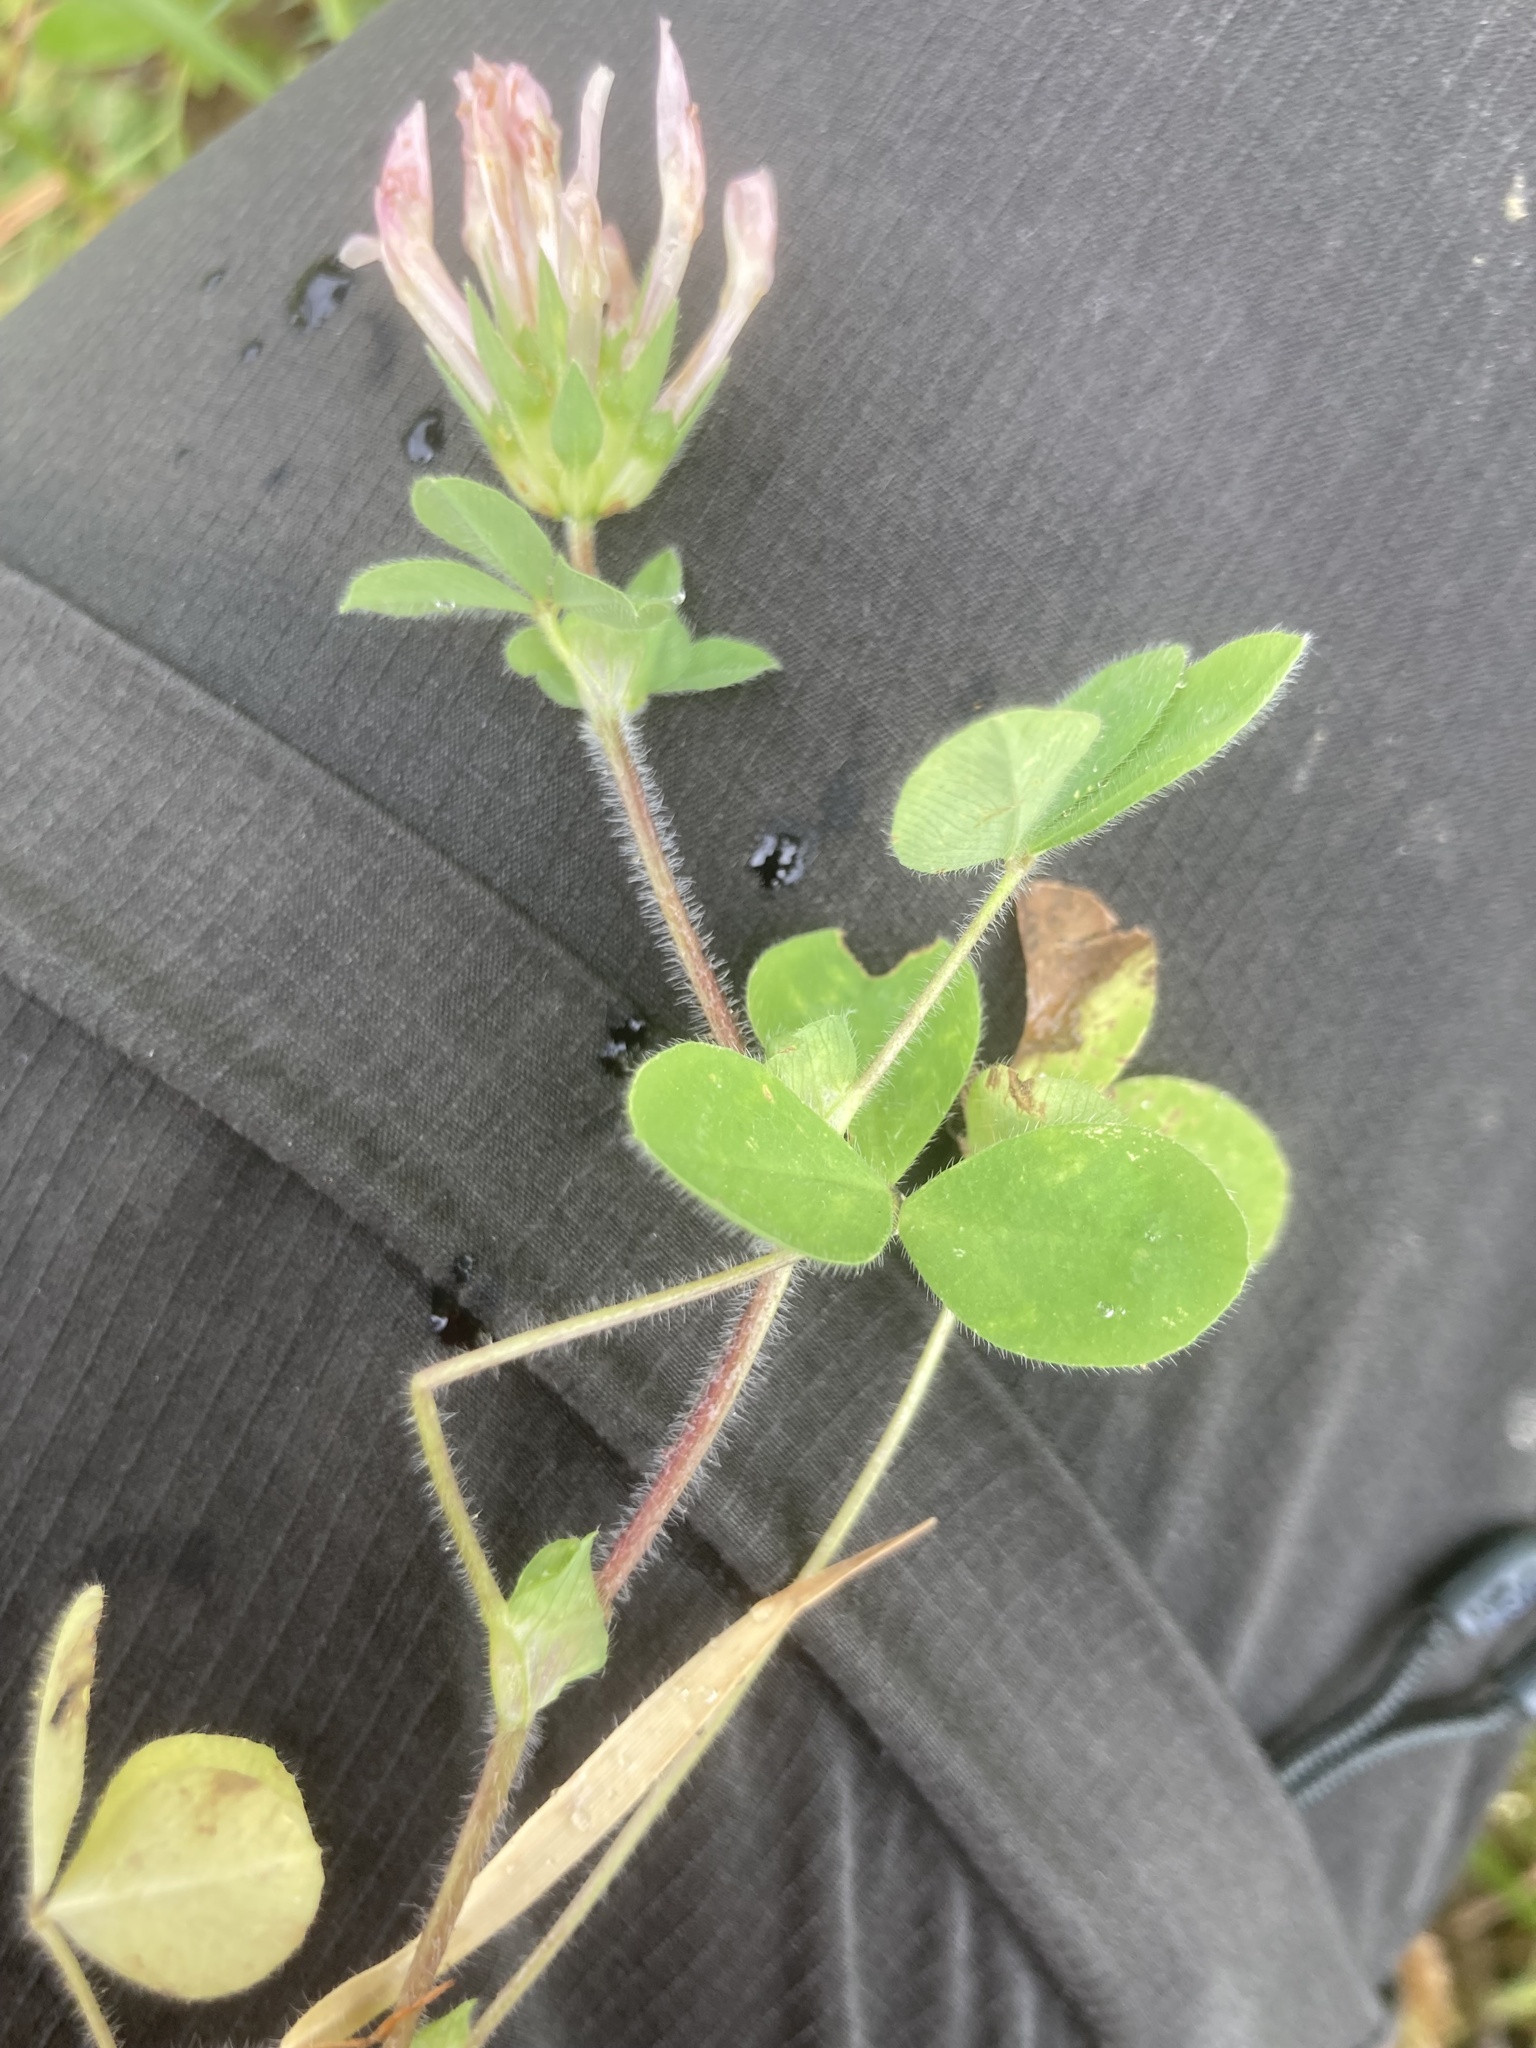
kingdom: Plantae
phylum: Tracheophyta
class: Magnoliopsida
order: Fabales
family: Fabaceae
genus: Trifolium
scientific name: Trifolium clypeatum
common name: Shield clover
